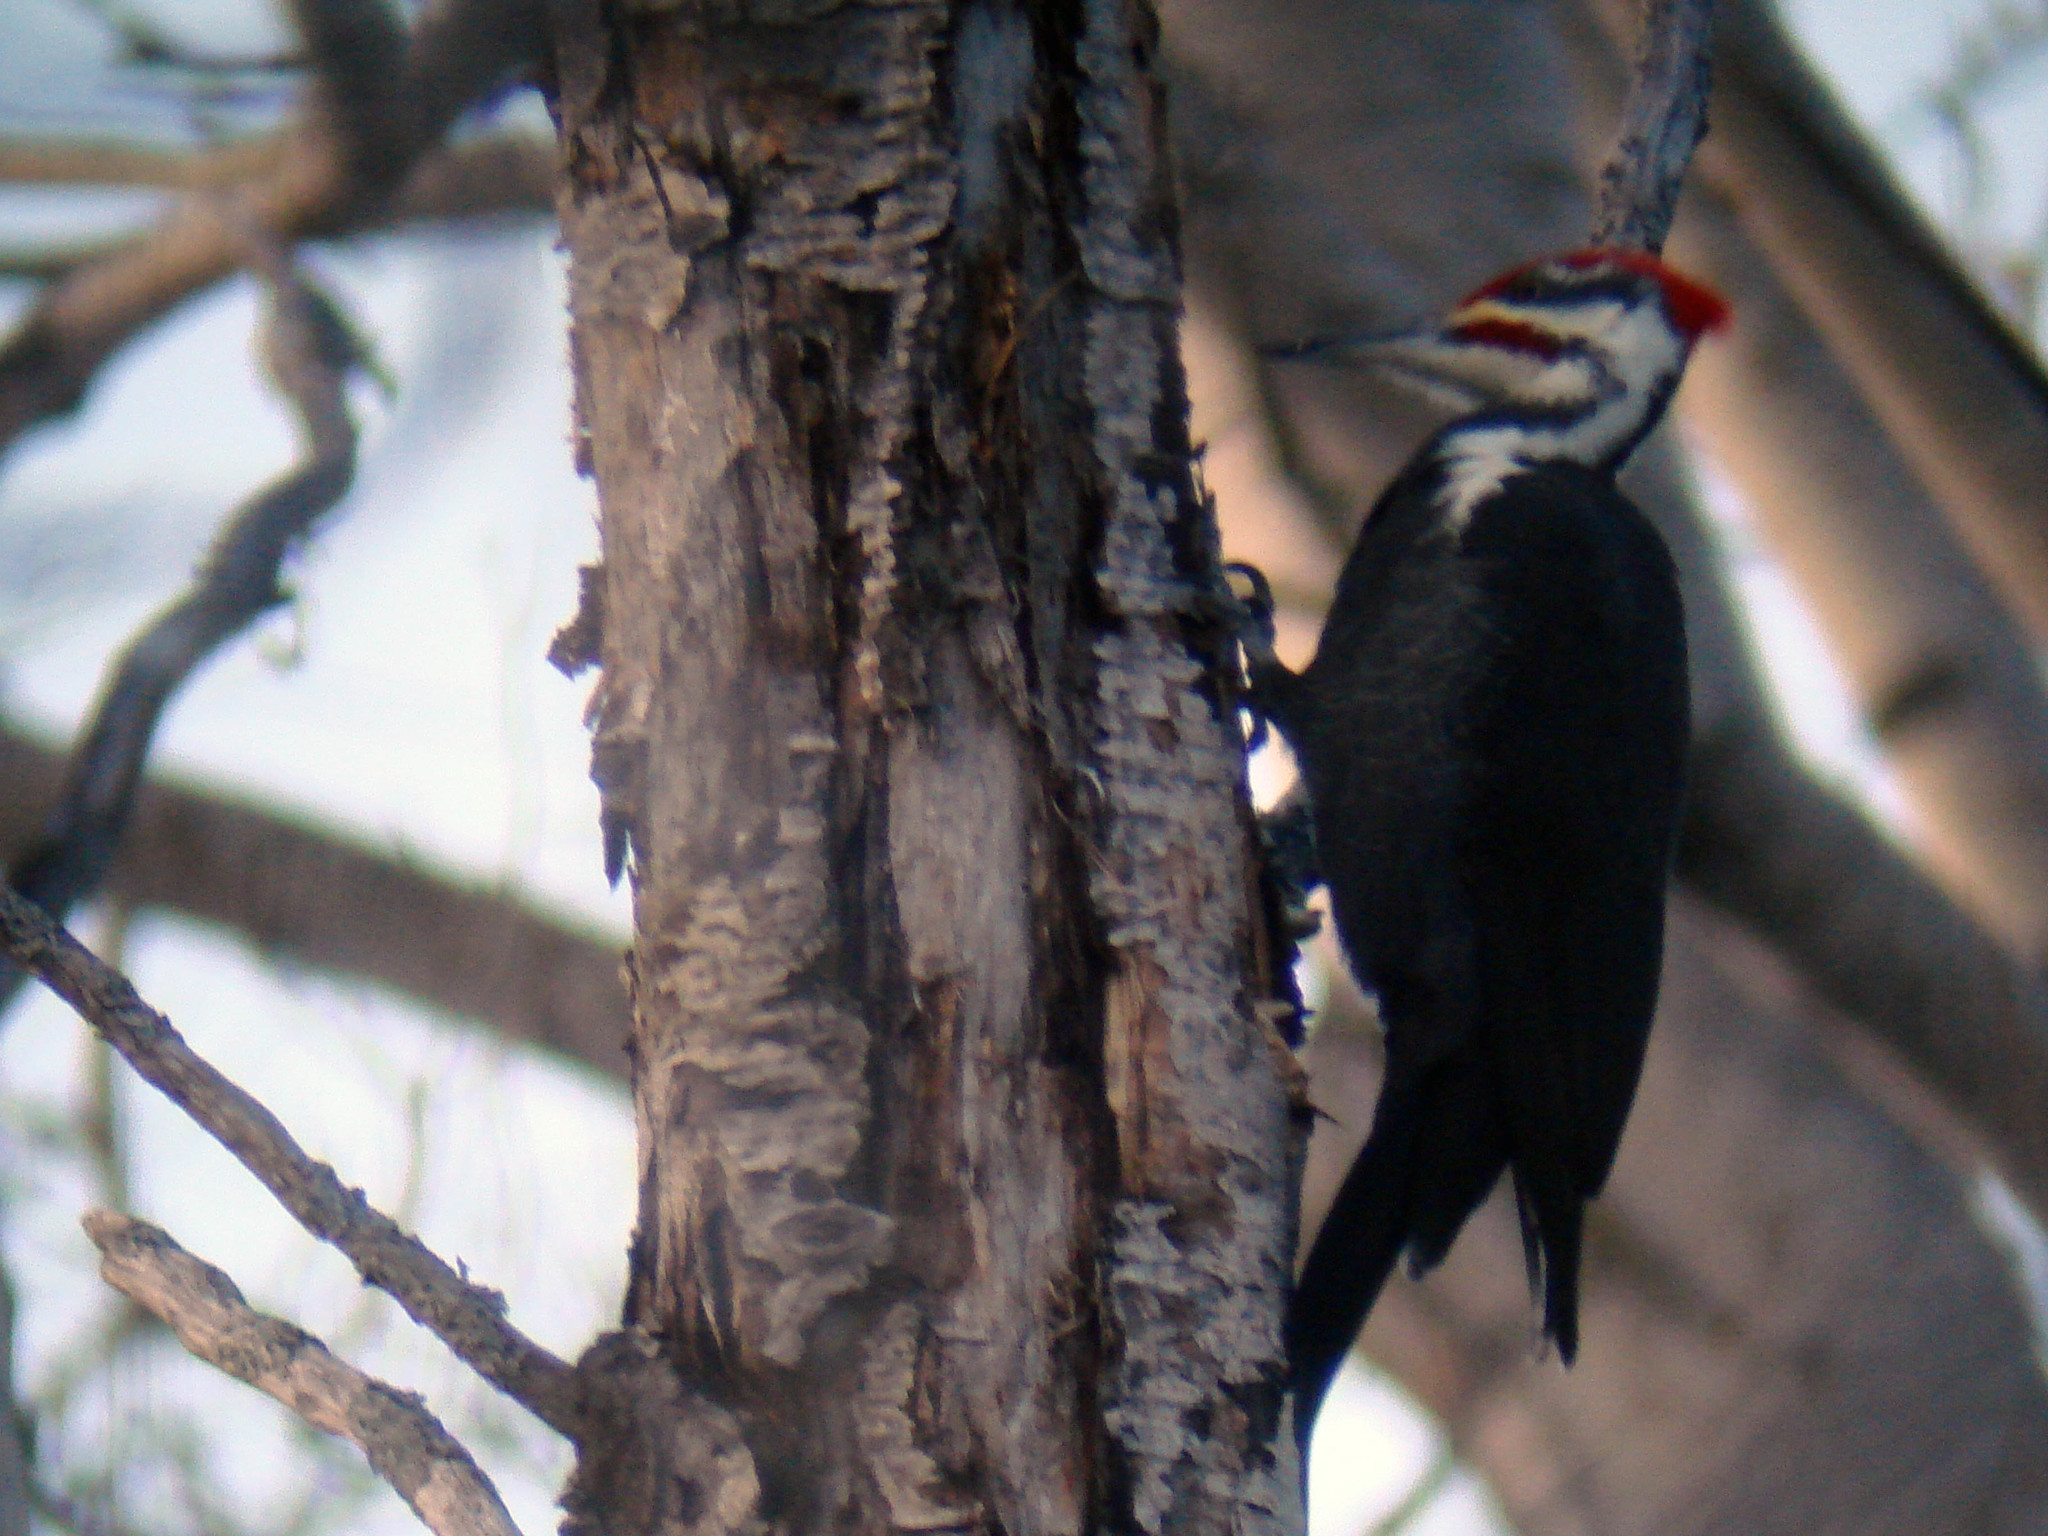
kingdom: Animalia
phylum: Chordata
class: Aves
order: Piciformes
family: Picidae
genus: Dryocopus
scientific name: Dryocopus pileatus
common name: Pileated woodpecker
